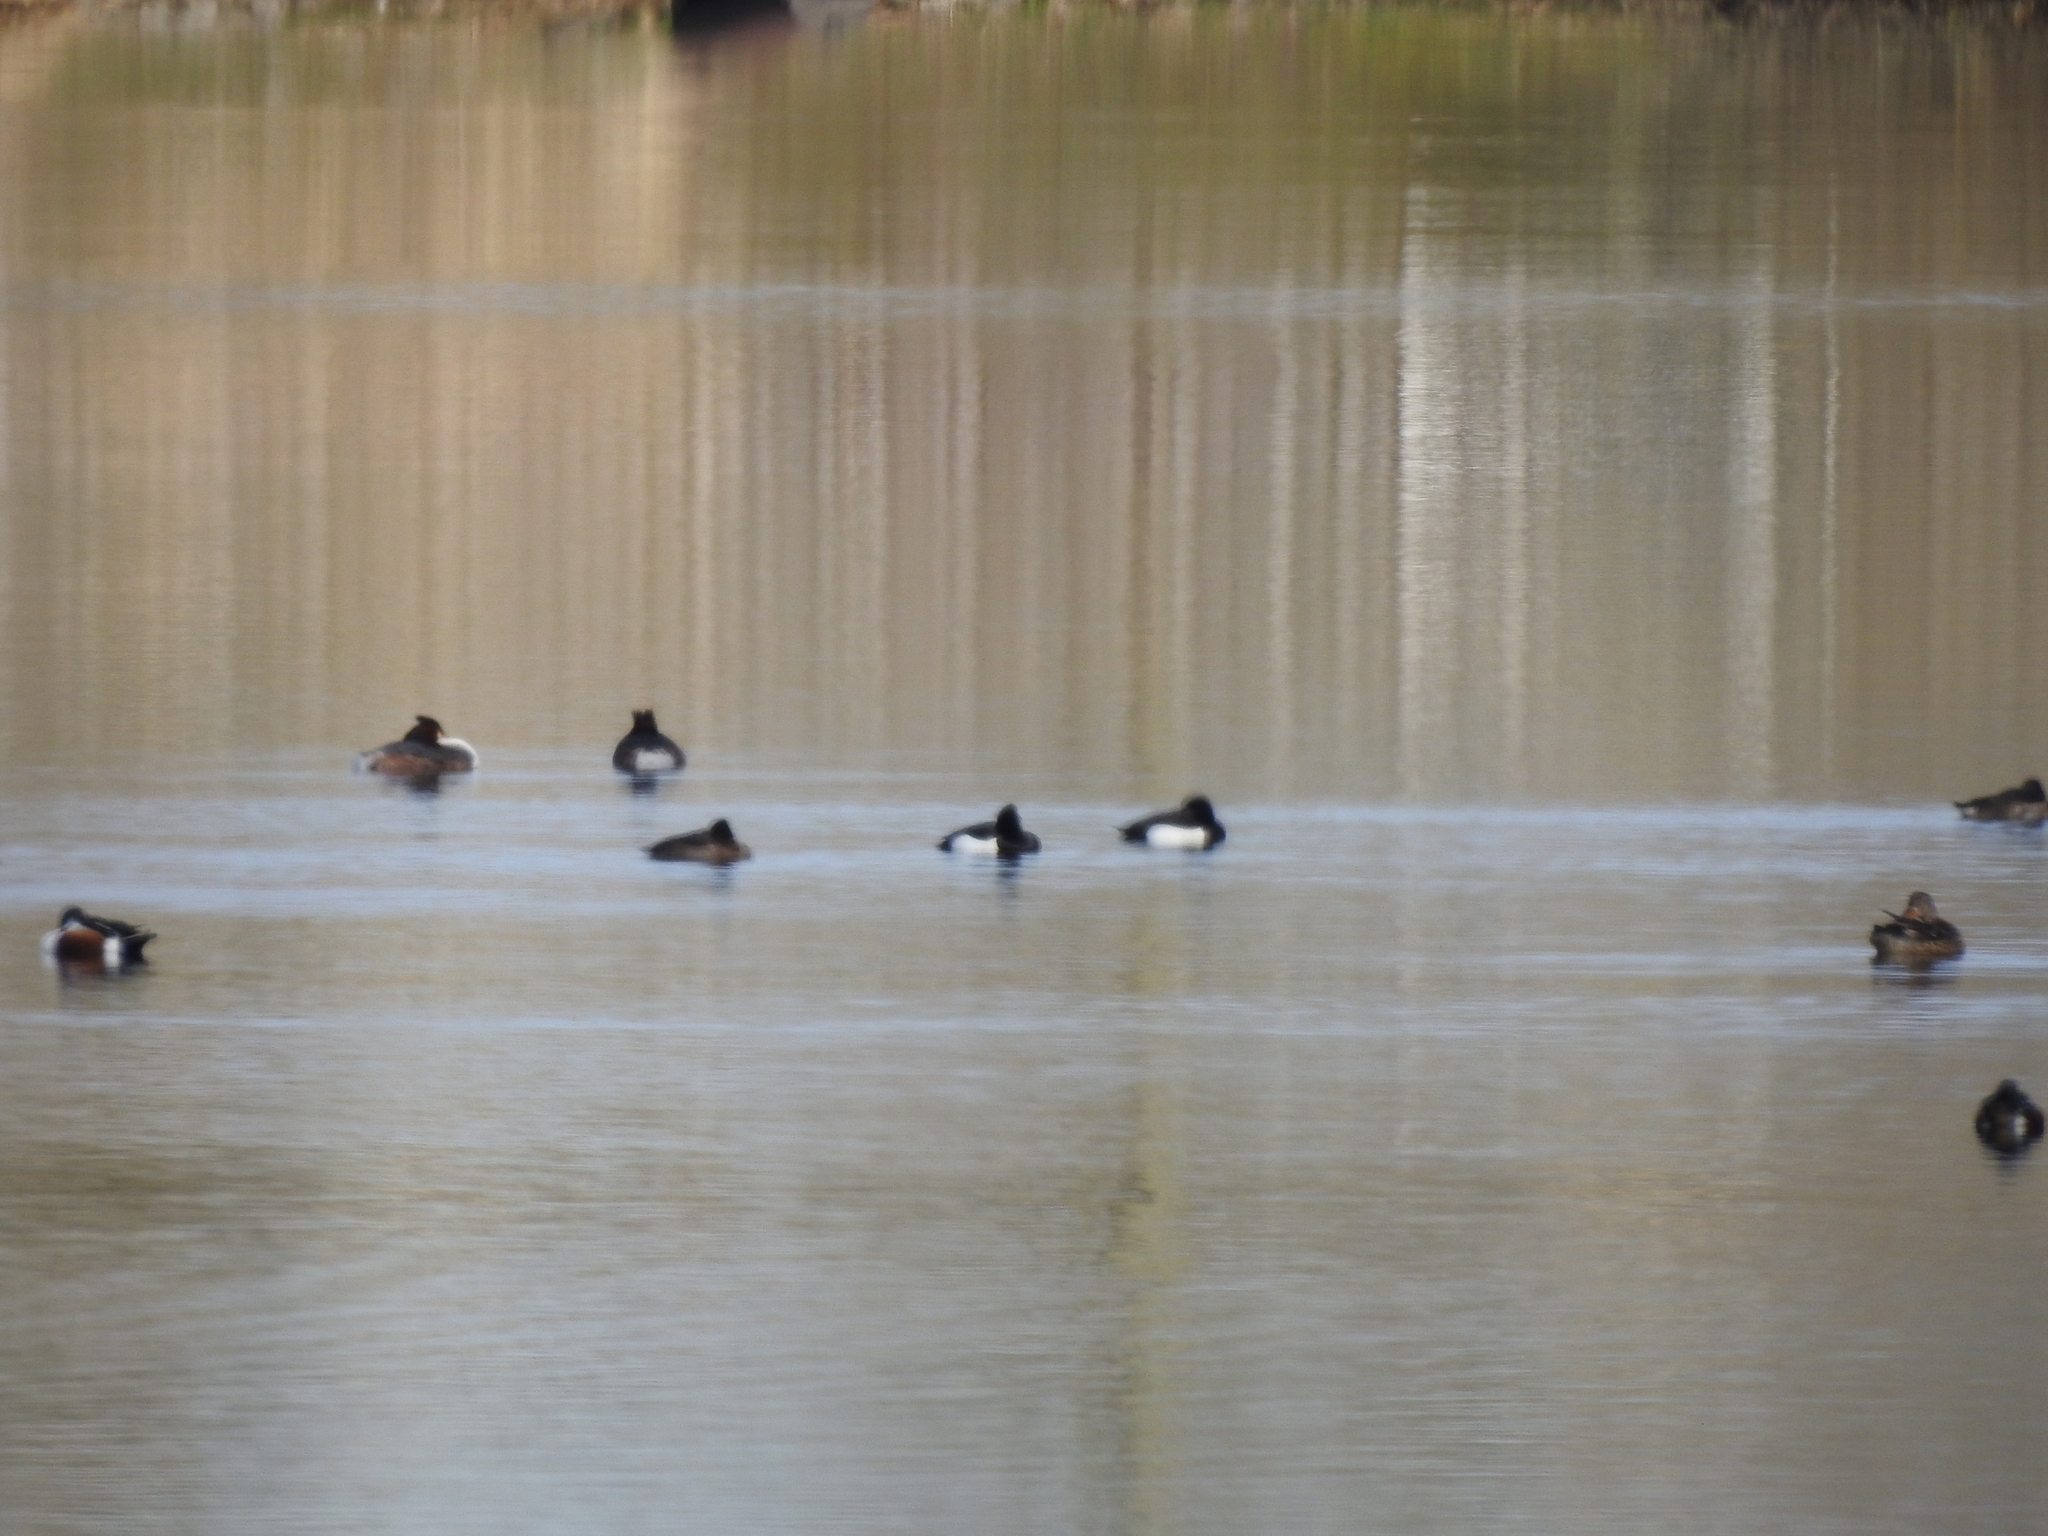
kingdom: Animalia
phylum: Chordata
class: Aves
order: Anseriformes
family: Anatidae
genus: Aythya
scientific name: Aythya fuligula
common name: Tufted duck
